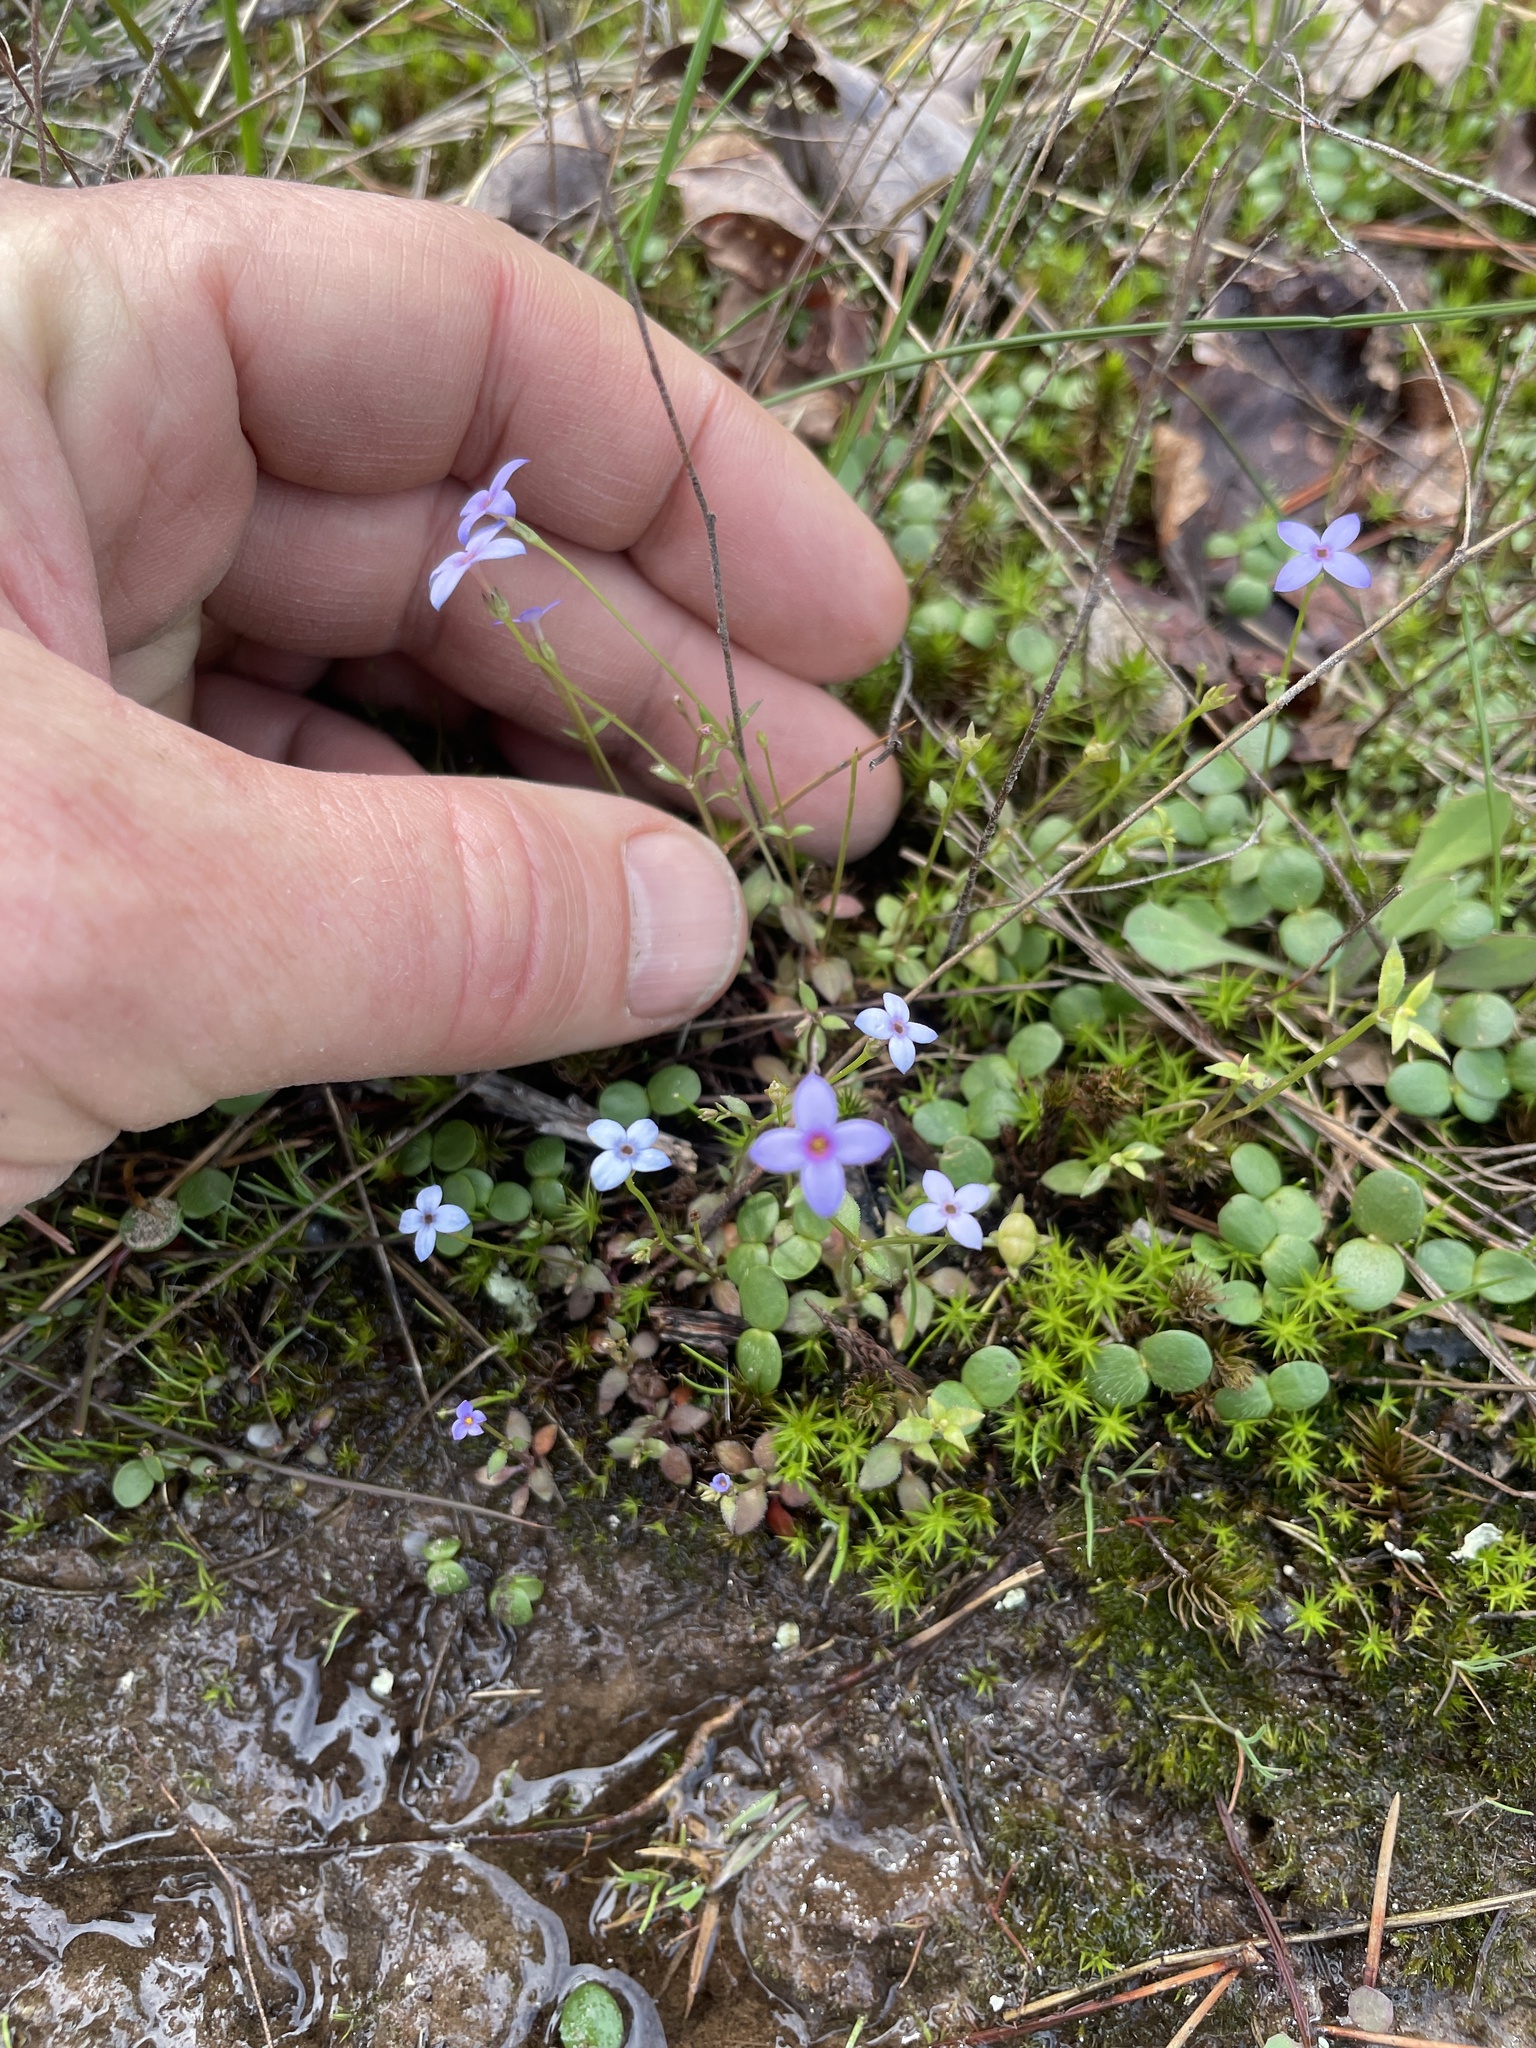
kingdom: Plantae
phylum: Tracheophyta
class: Magnoliopsida
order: Gentianales
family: Rubiaceae
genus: Houstonia
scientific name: Houstonia pusilla
